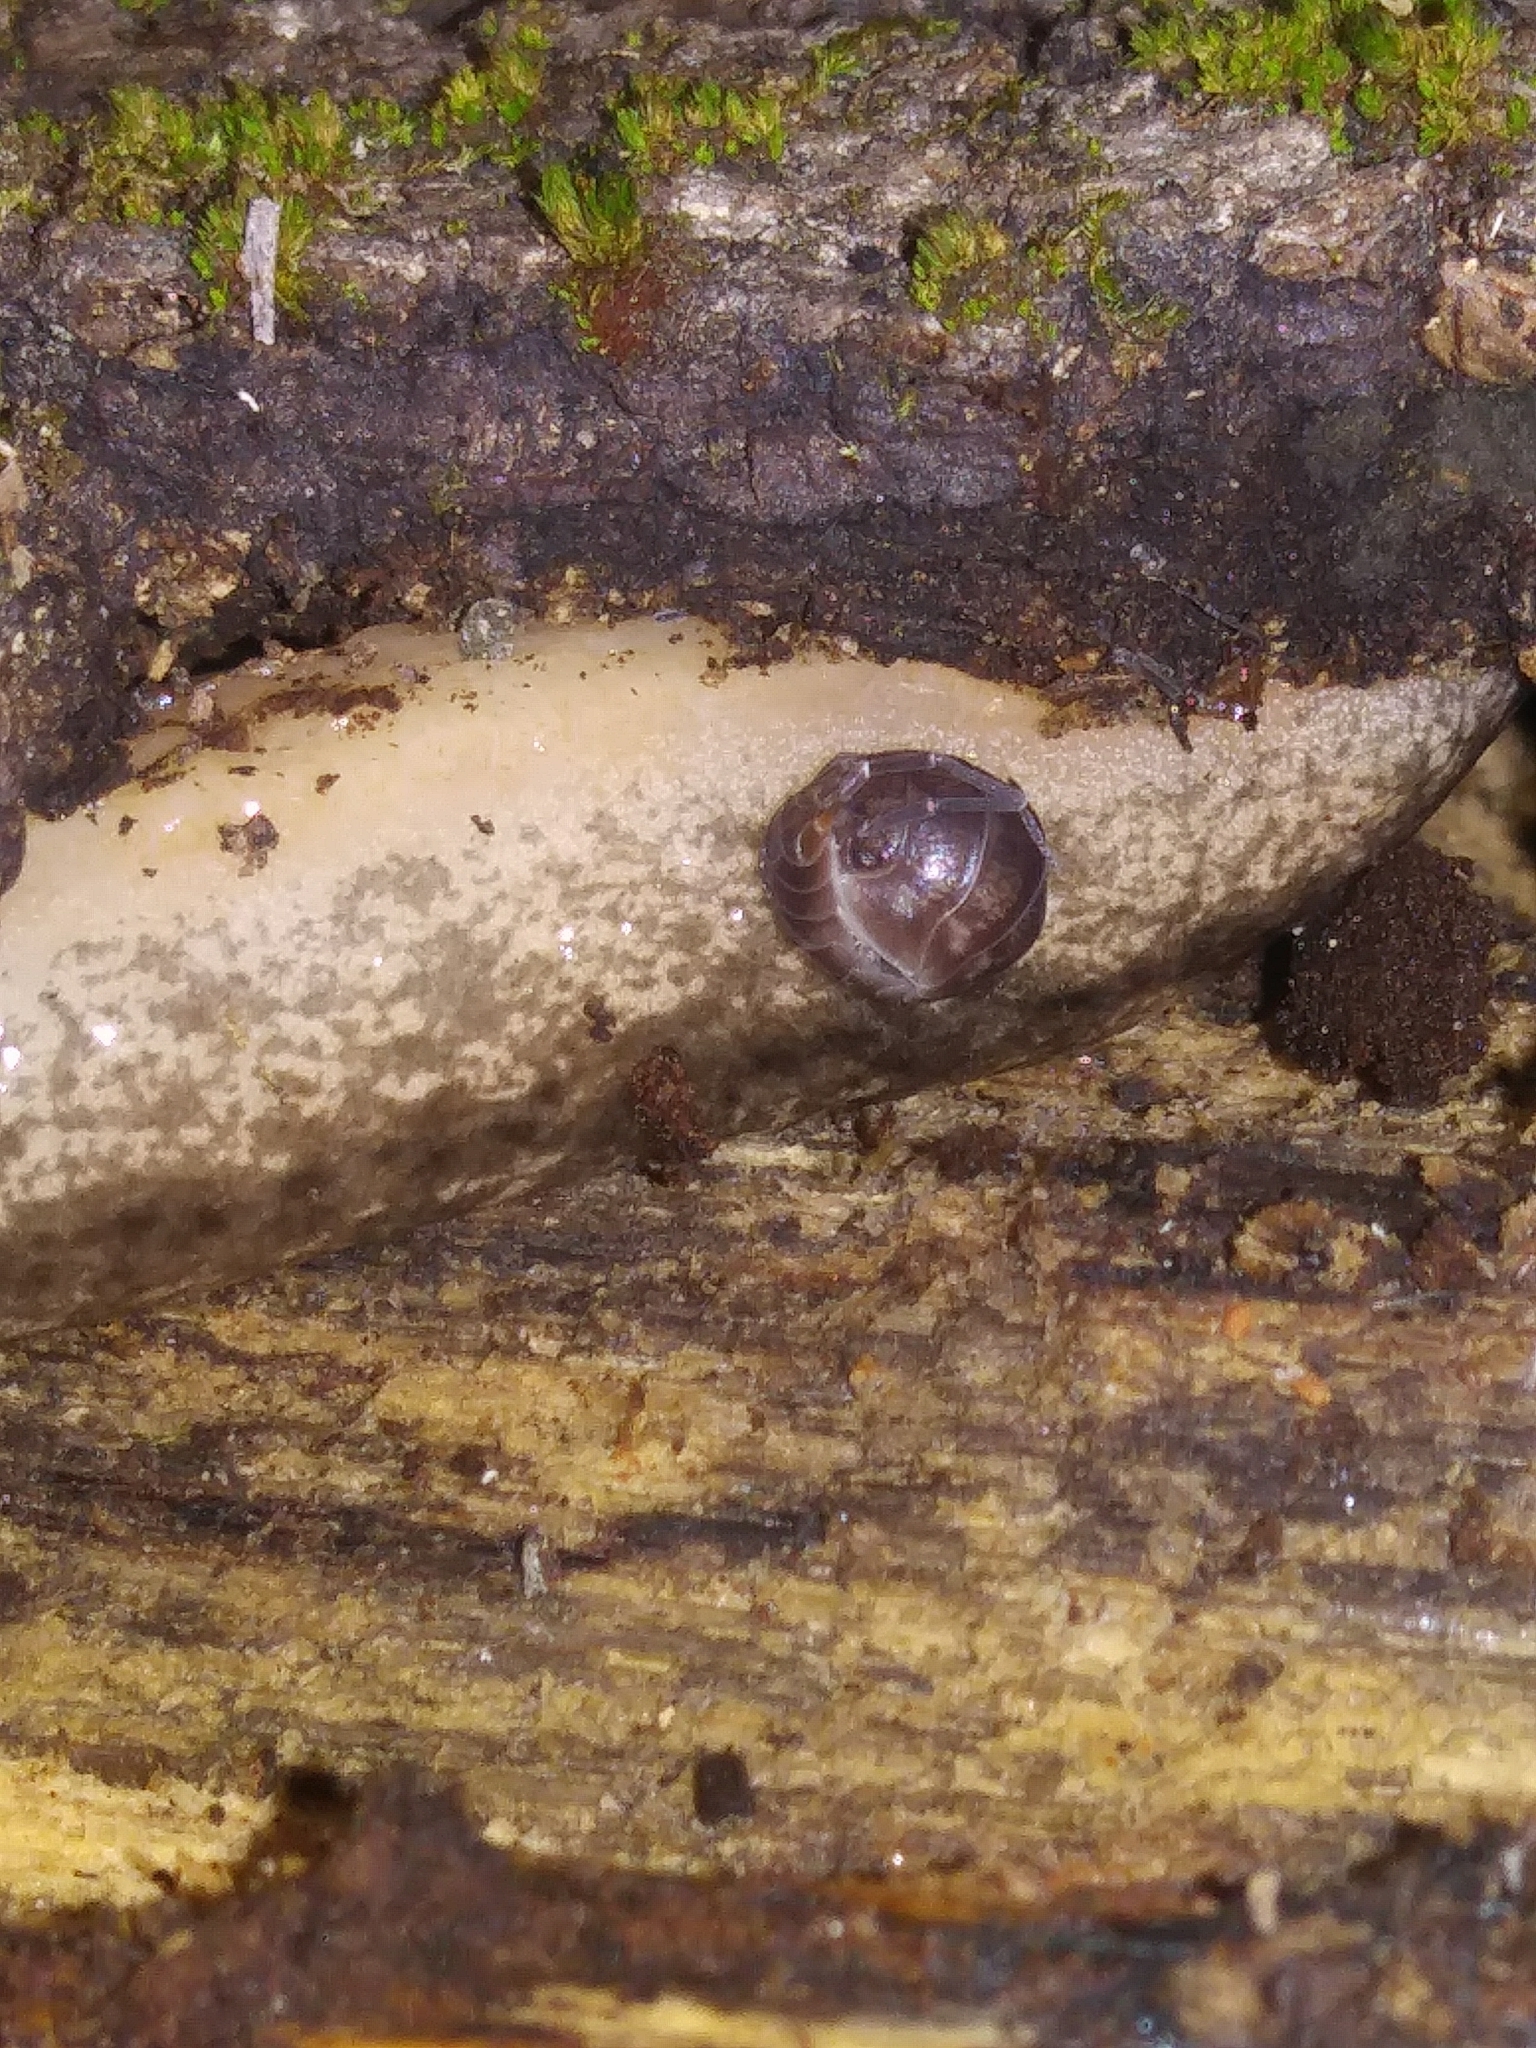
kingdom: Animalia
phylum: Arthropoda
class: Malacostraca
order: Isopoda
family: Cylisticidae
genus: Cylisticus
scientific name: Cylisticus convexus
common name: Curly woodlouse
